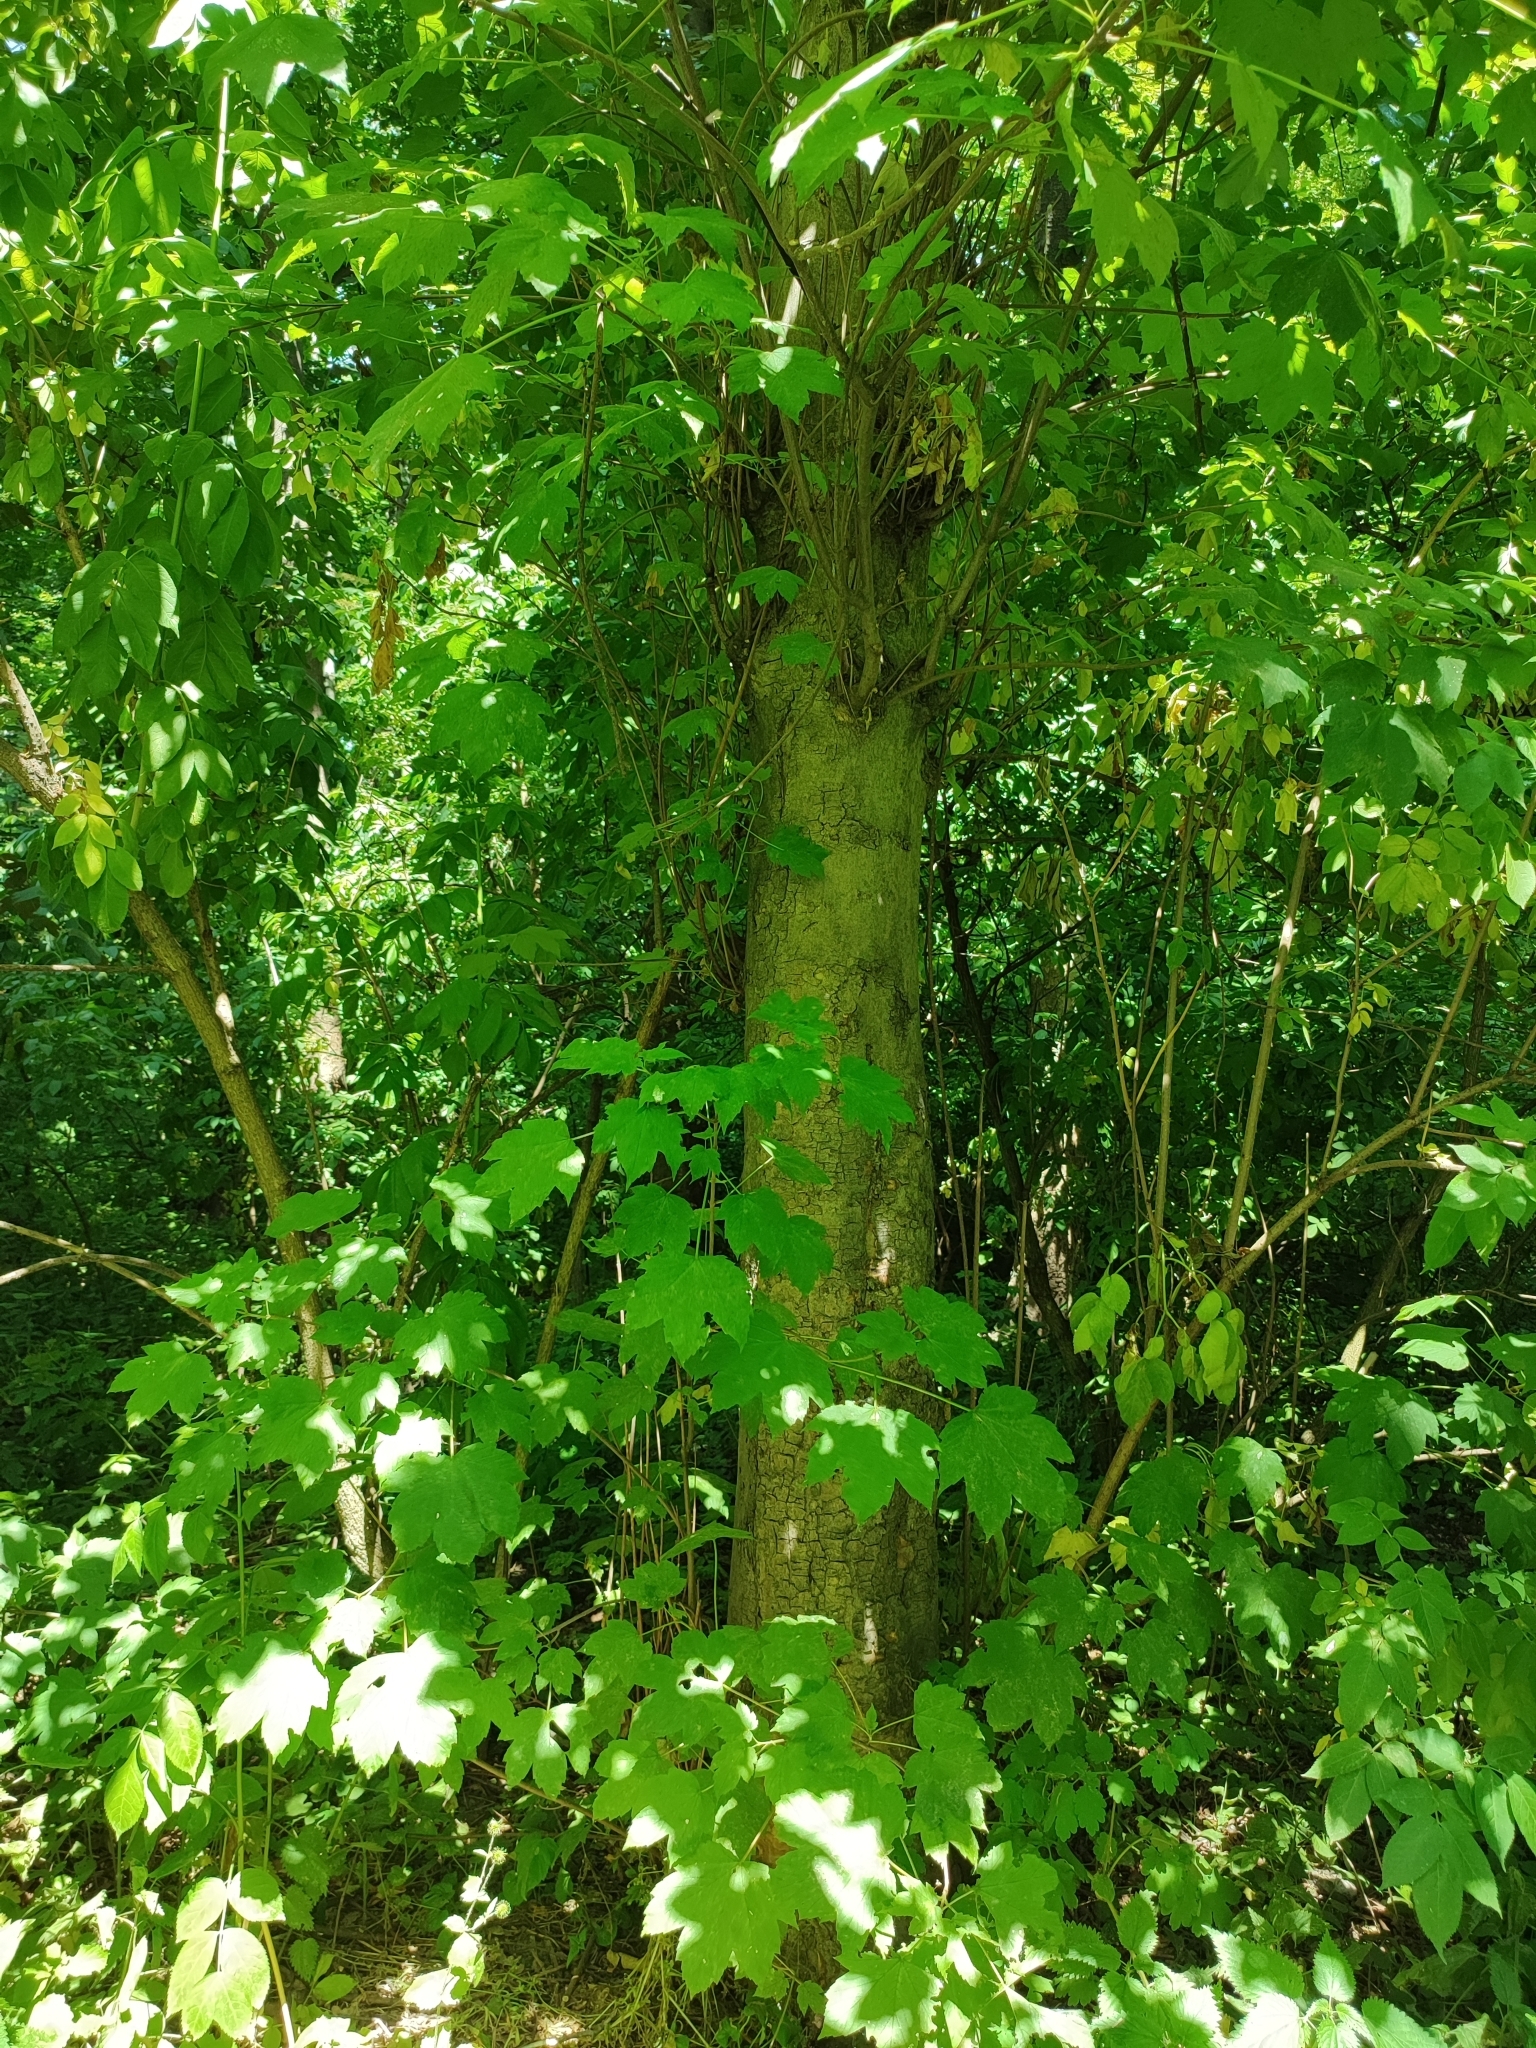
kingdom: Plantae
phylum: Tracheophyta
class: Magnoliopsida
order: Sapindales
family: Sapindaceae
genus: Acer
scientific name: Acer pseudoplatanus
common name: Sycamore
